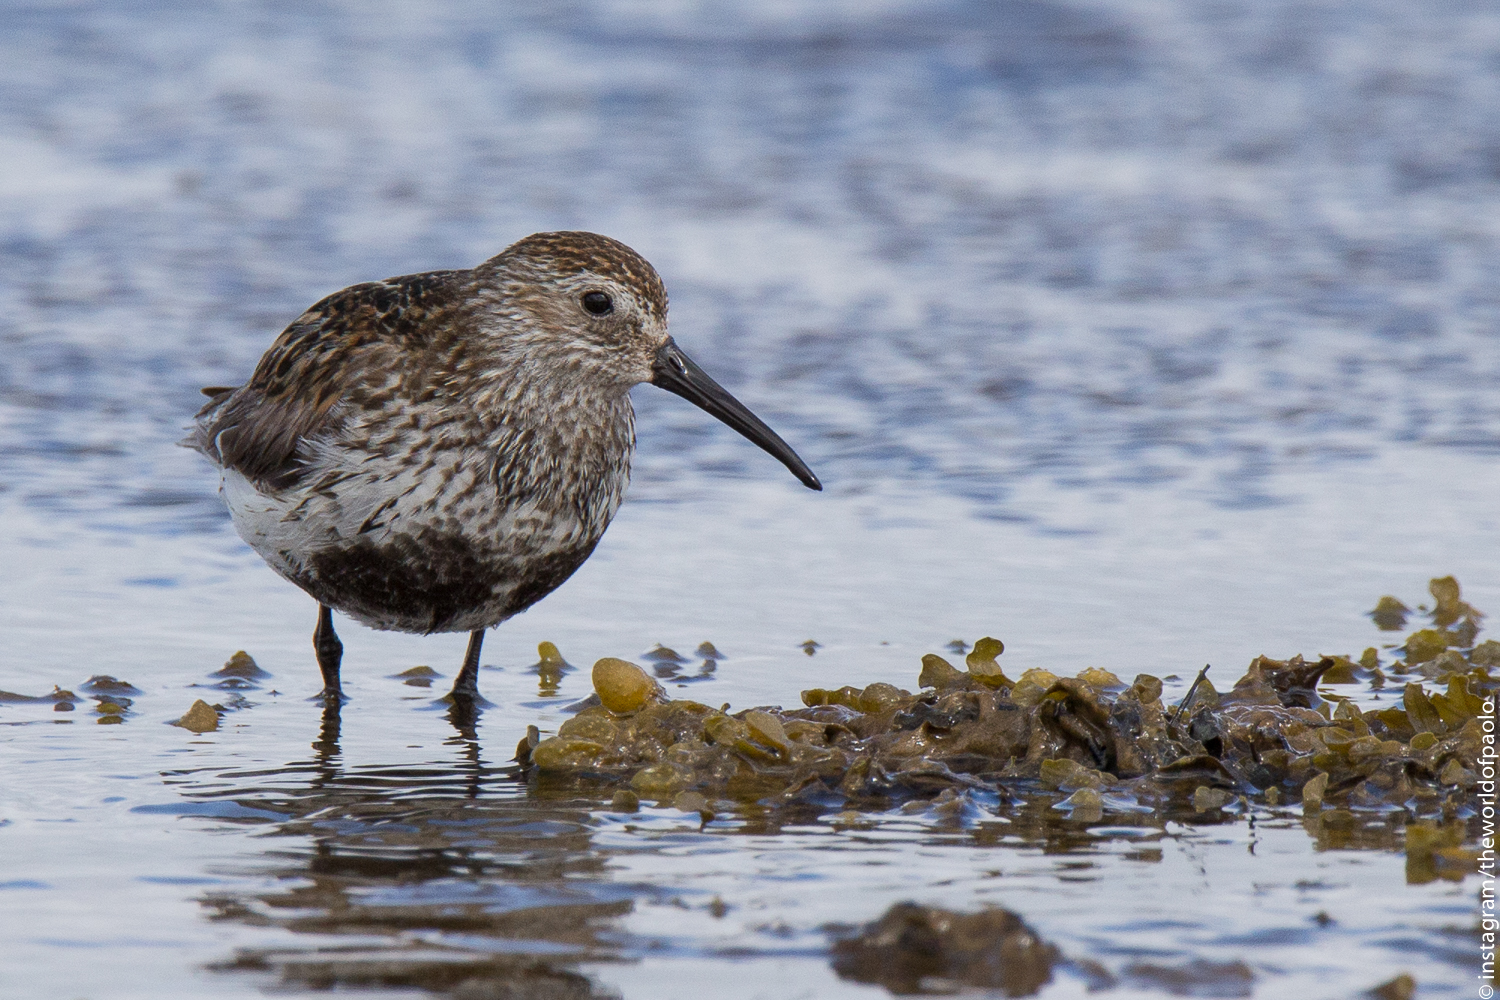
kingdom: Animalia
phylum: Chordata
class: Aves
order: Charadriiformes
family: Scolopacidae
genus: Calidris
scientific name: Calidris alpina
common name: Dunlin
